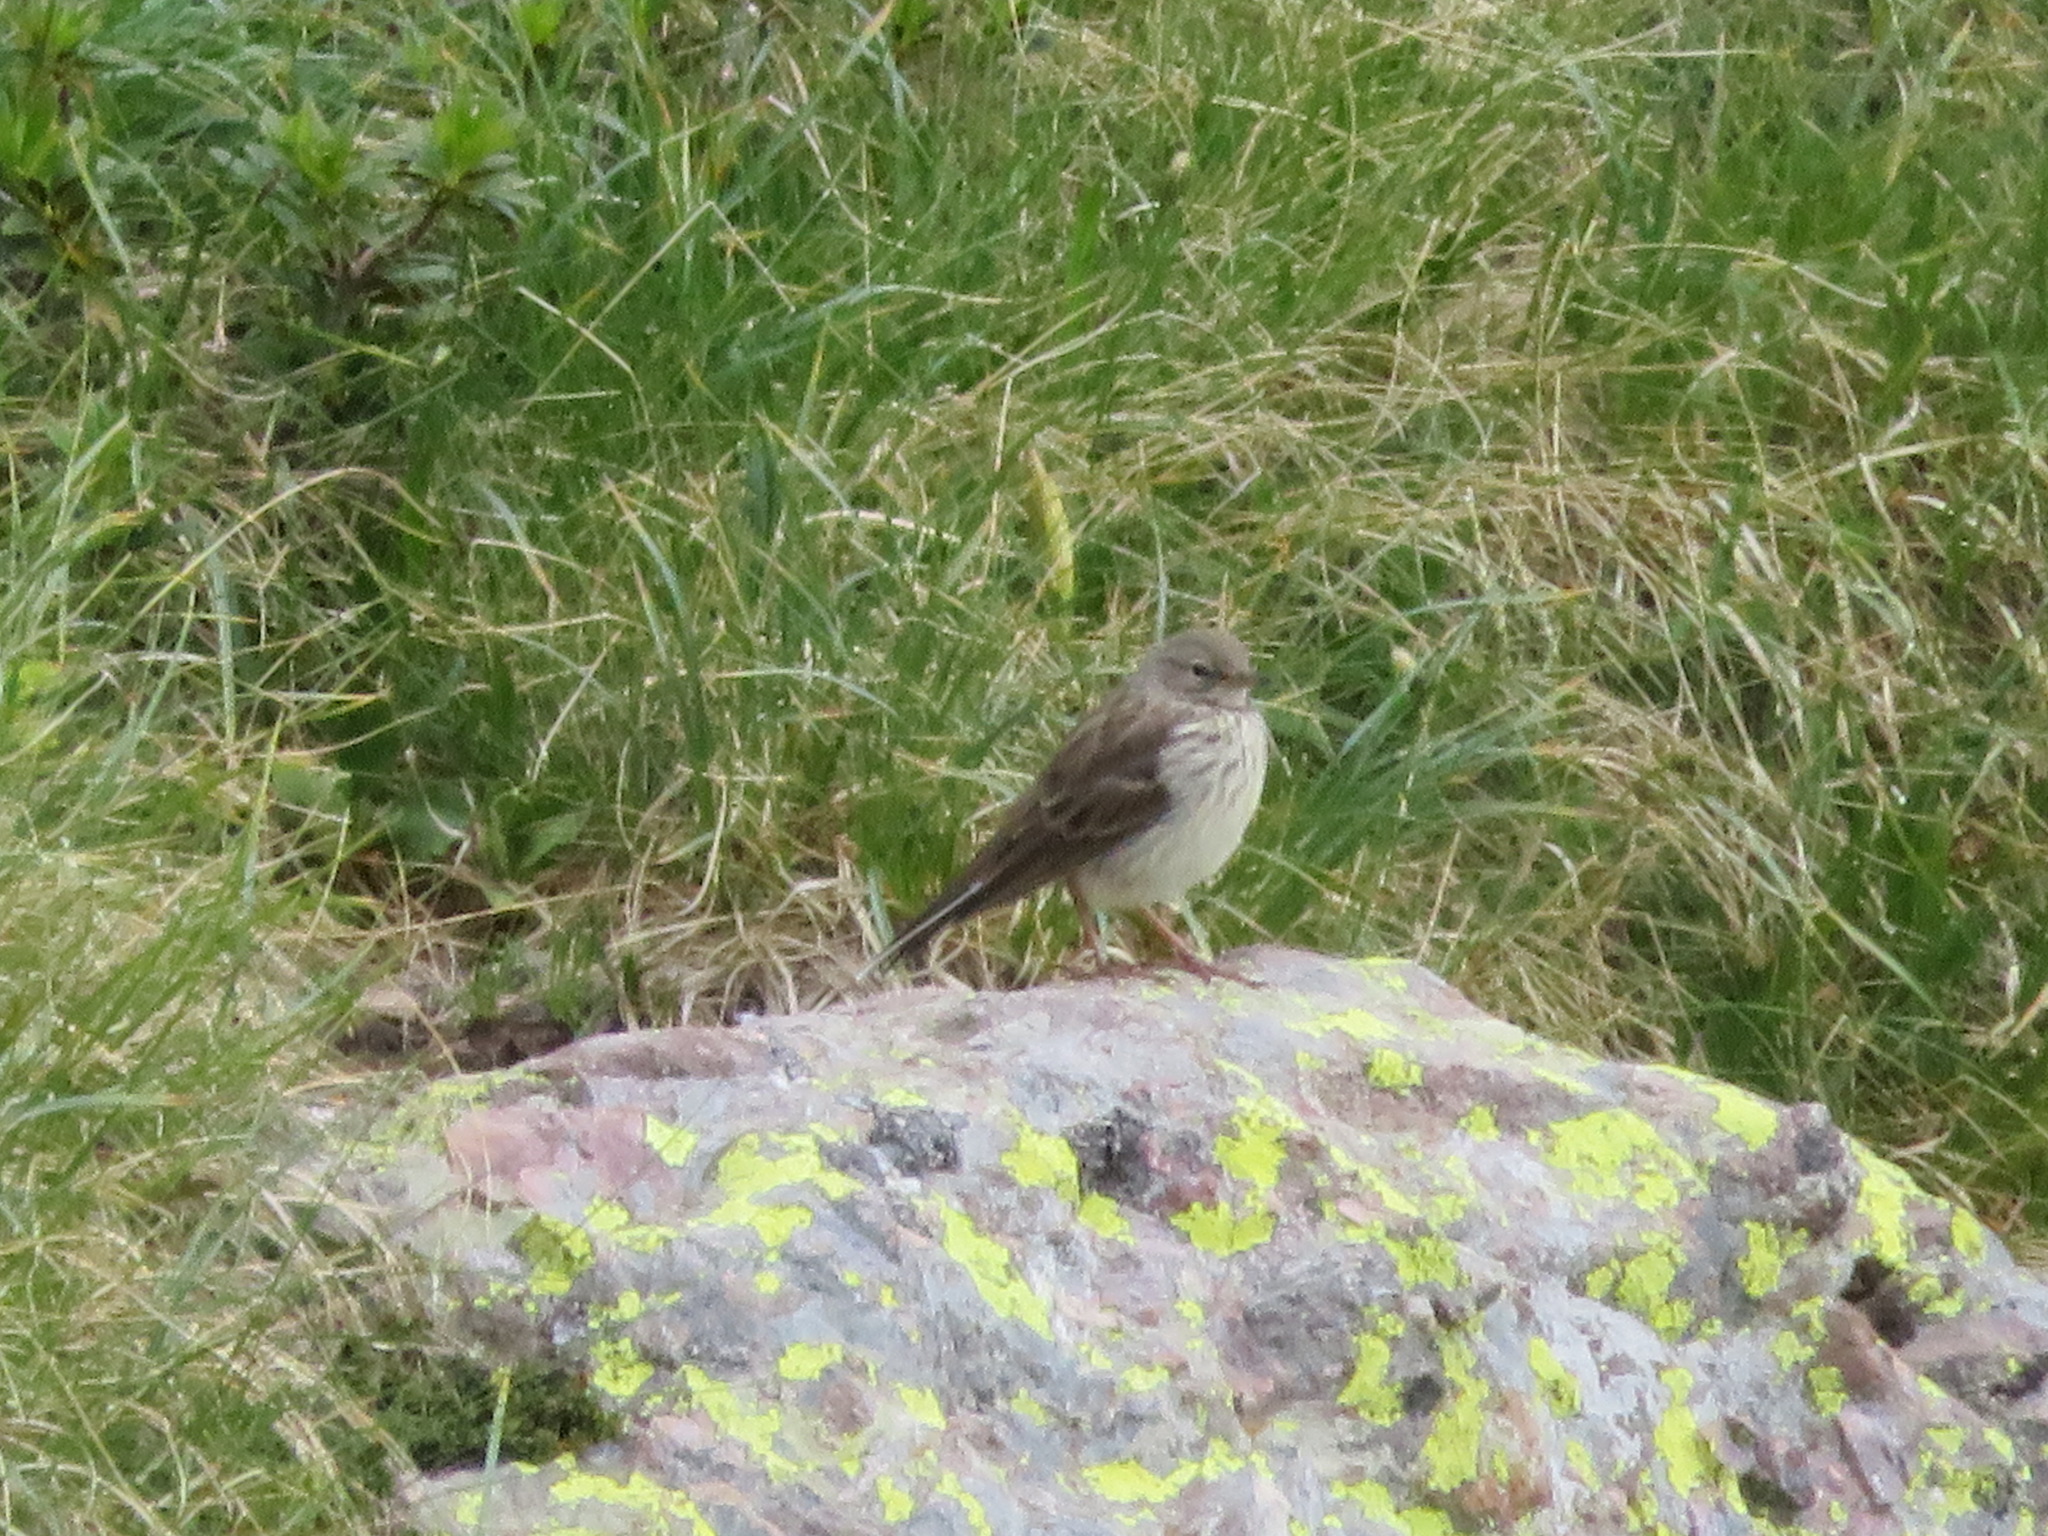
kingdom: Animalia
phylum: Chordata
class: Aves
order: Passeriformes
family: Motacillidae
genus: Anthus
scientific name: Anthus spinoletta
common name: Water pipit
